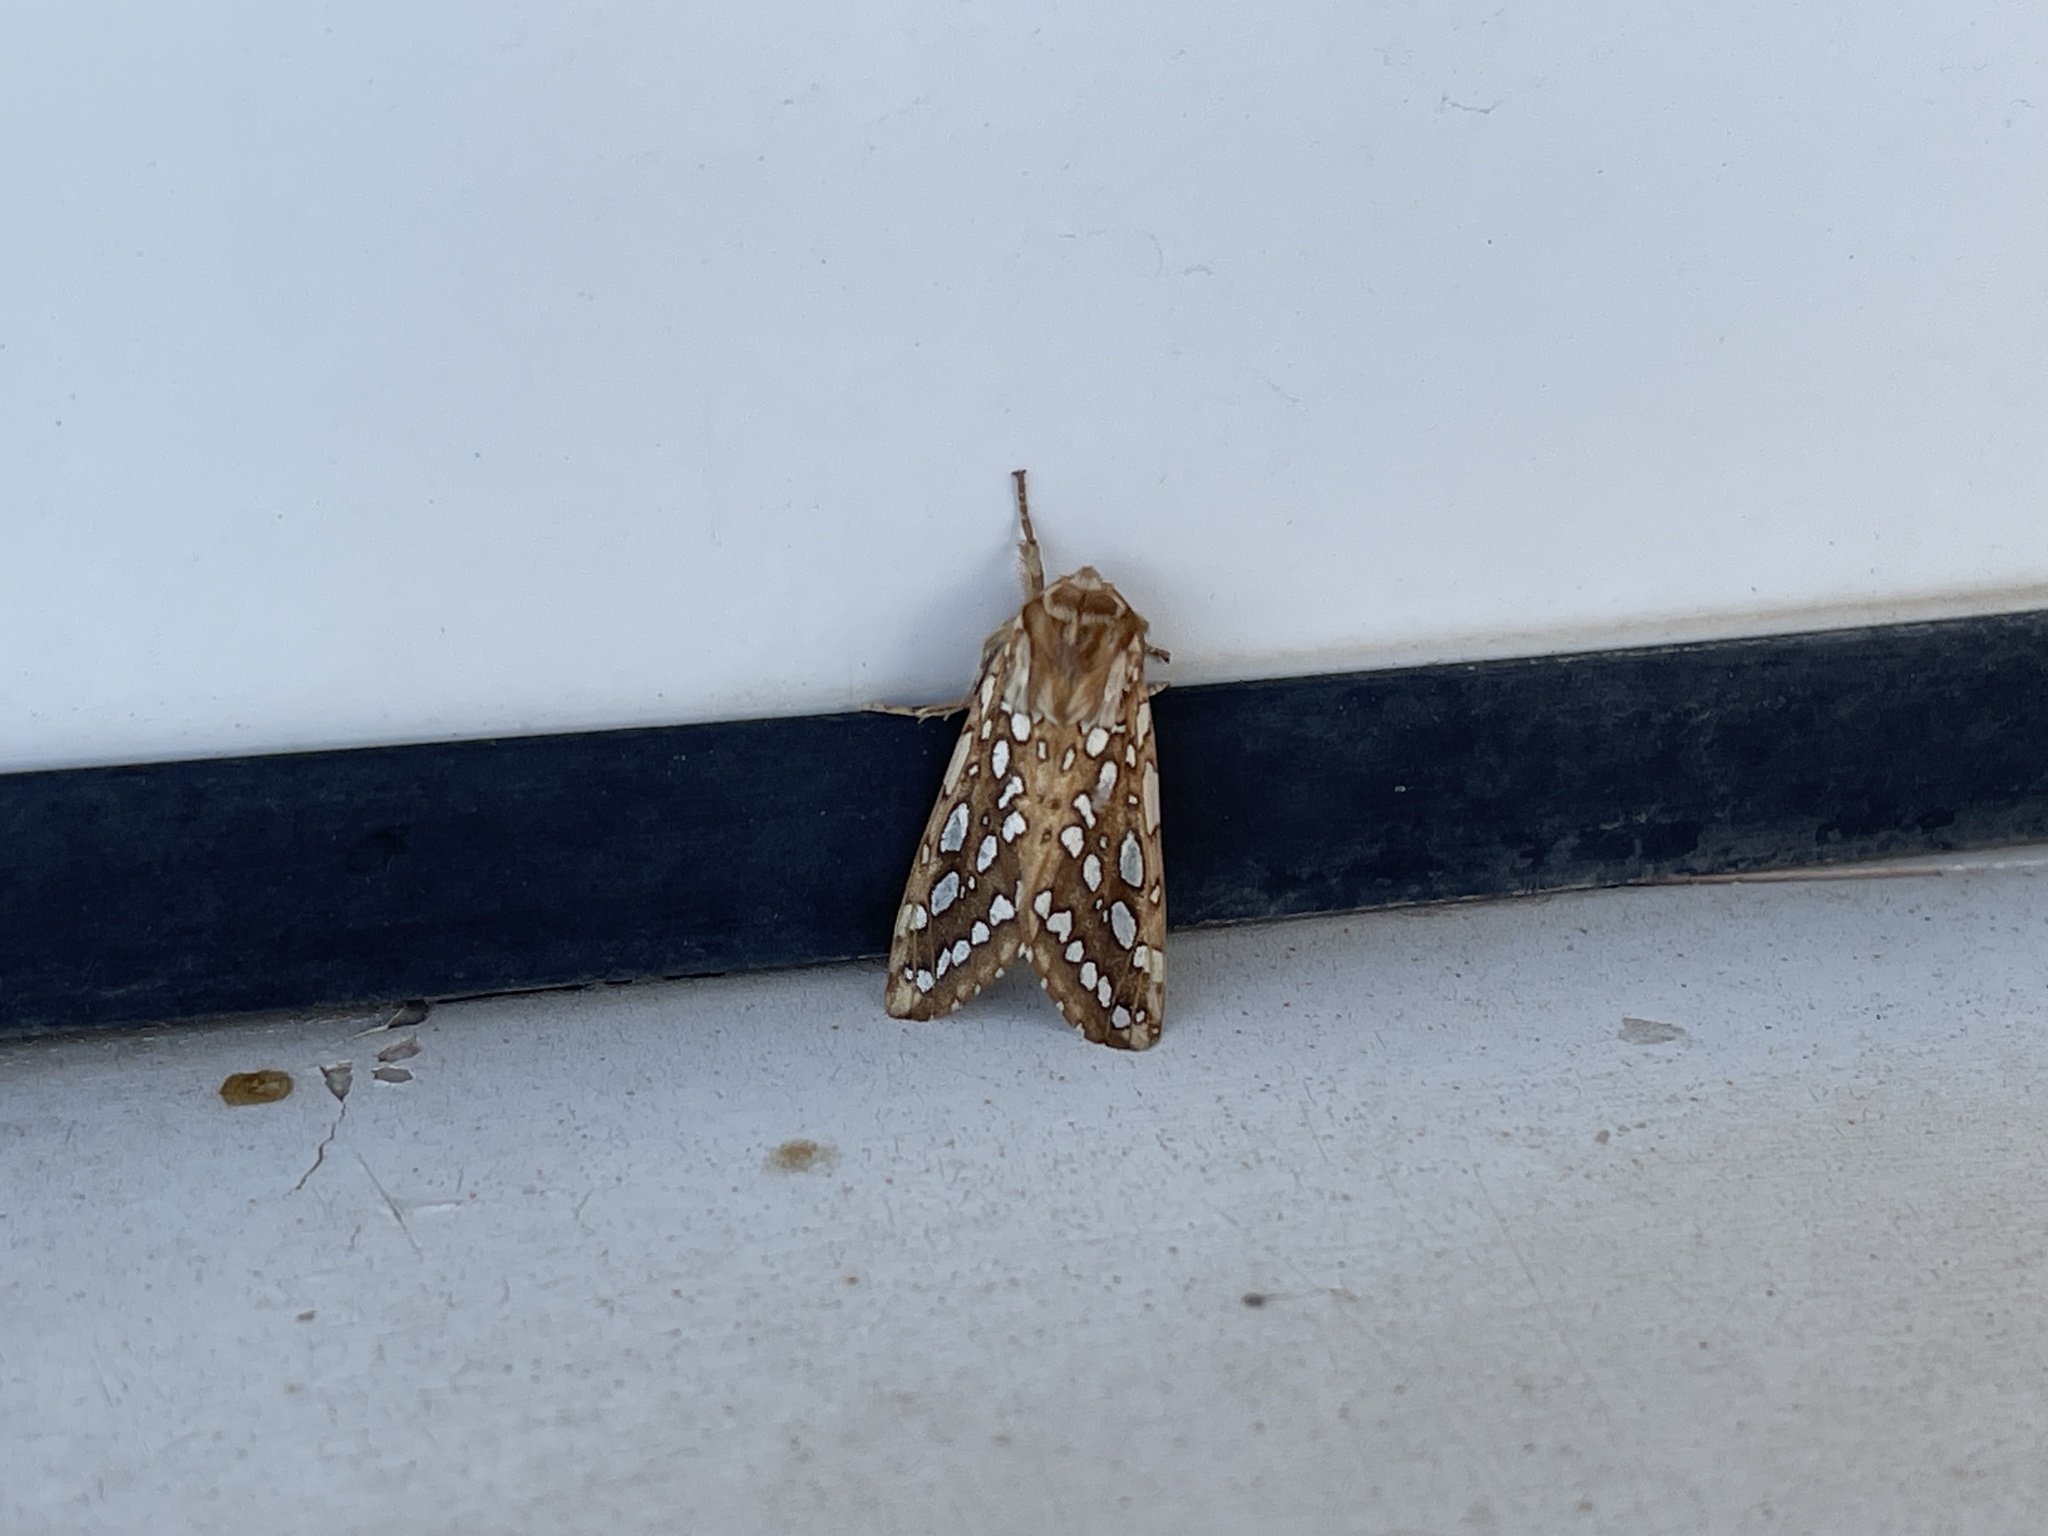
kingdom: Animalia
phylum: Arthropoda
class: Insecta
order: Lepidoptera
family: Erebidae
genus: Lophocampa
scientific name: Lophocampa argentata
